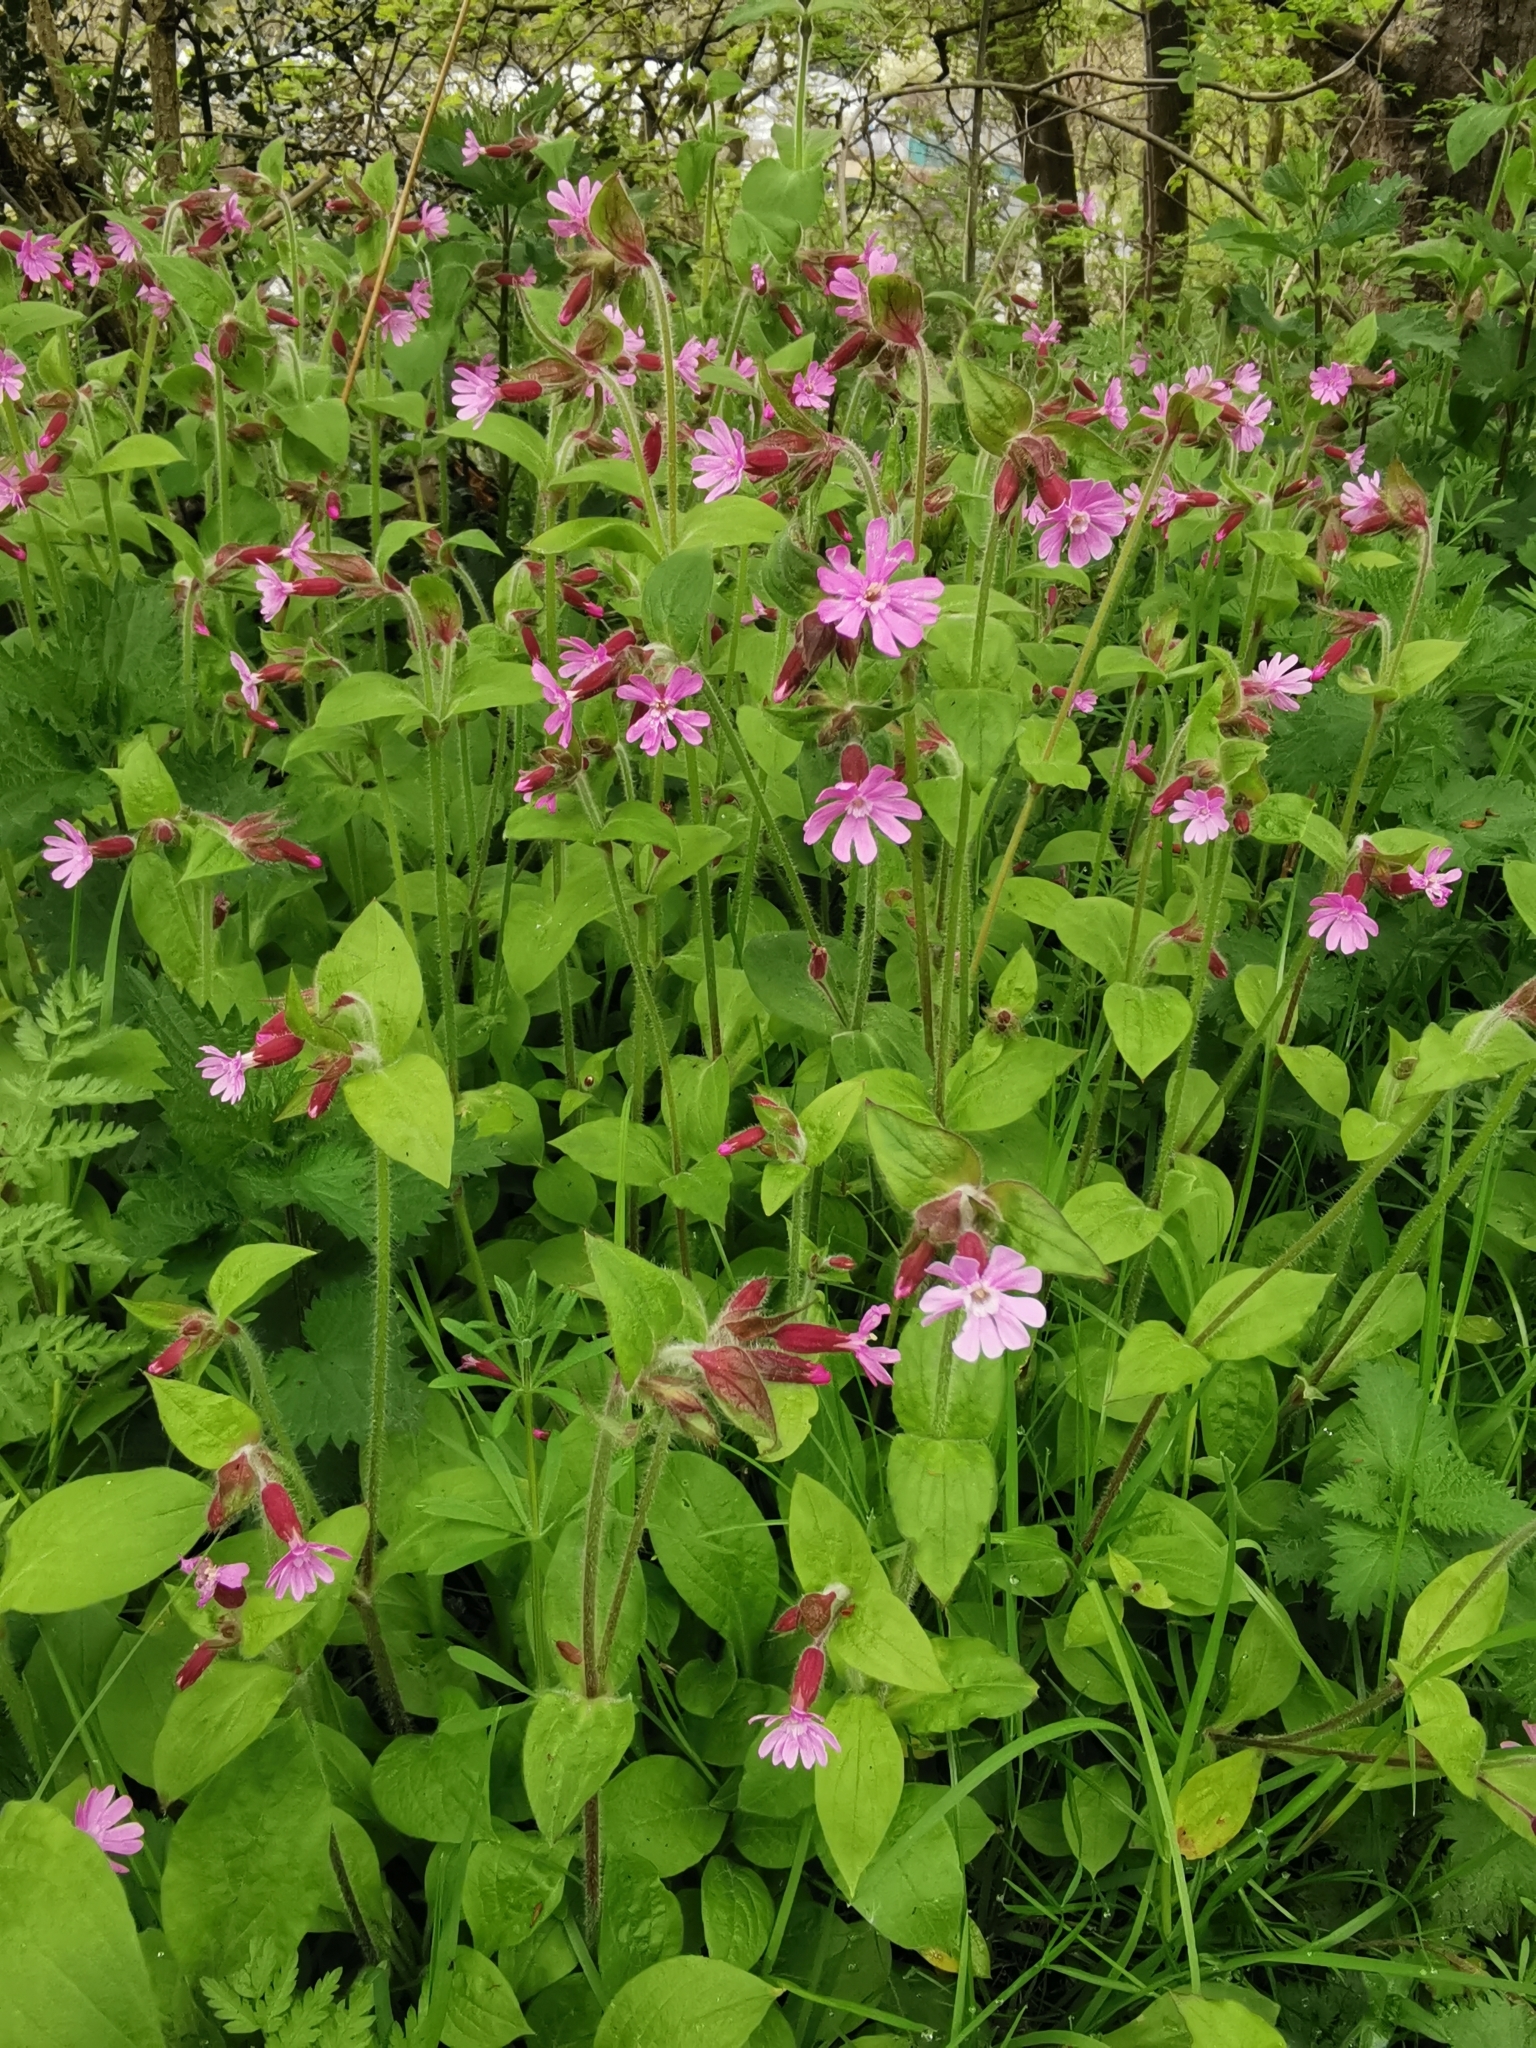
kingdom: Plantae
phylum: Tracheophyta
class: Magnoliopsida
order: Caryophyllales
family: Caryophyllaceae
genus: Silene
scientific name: Silene dioica
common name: Red campion
